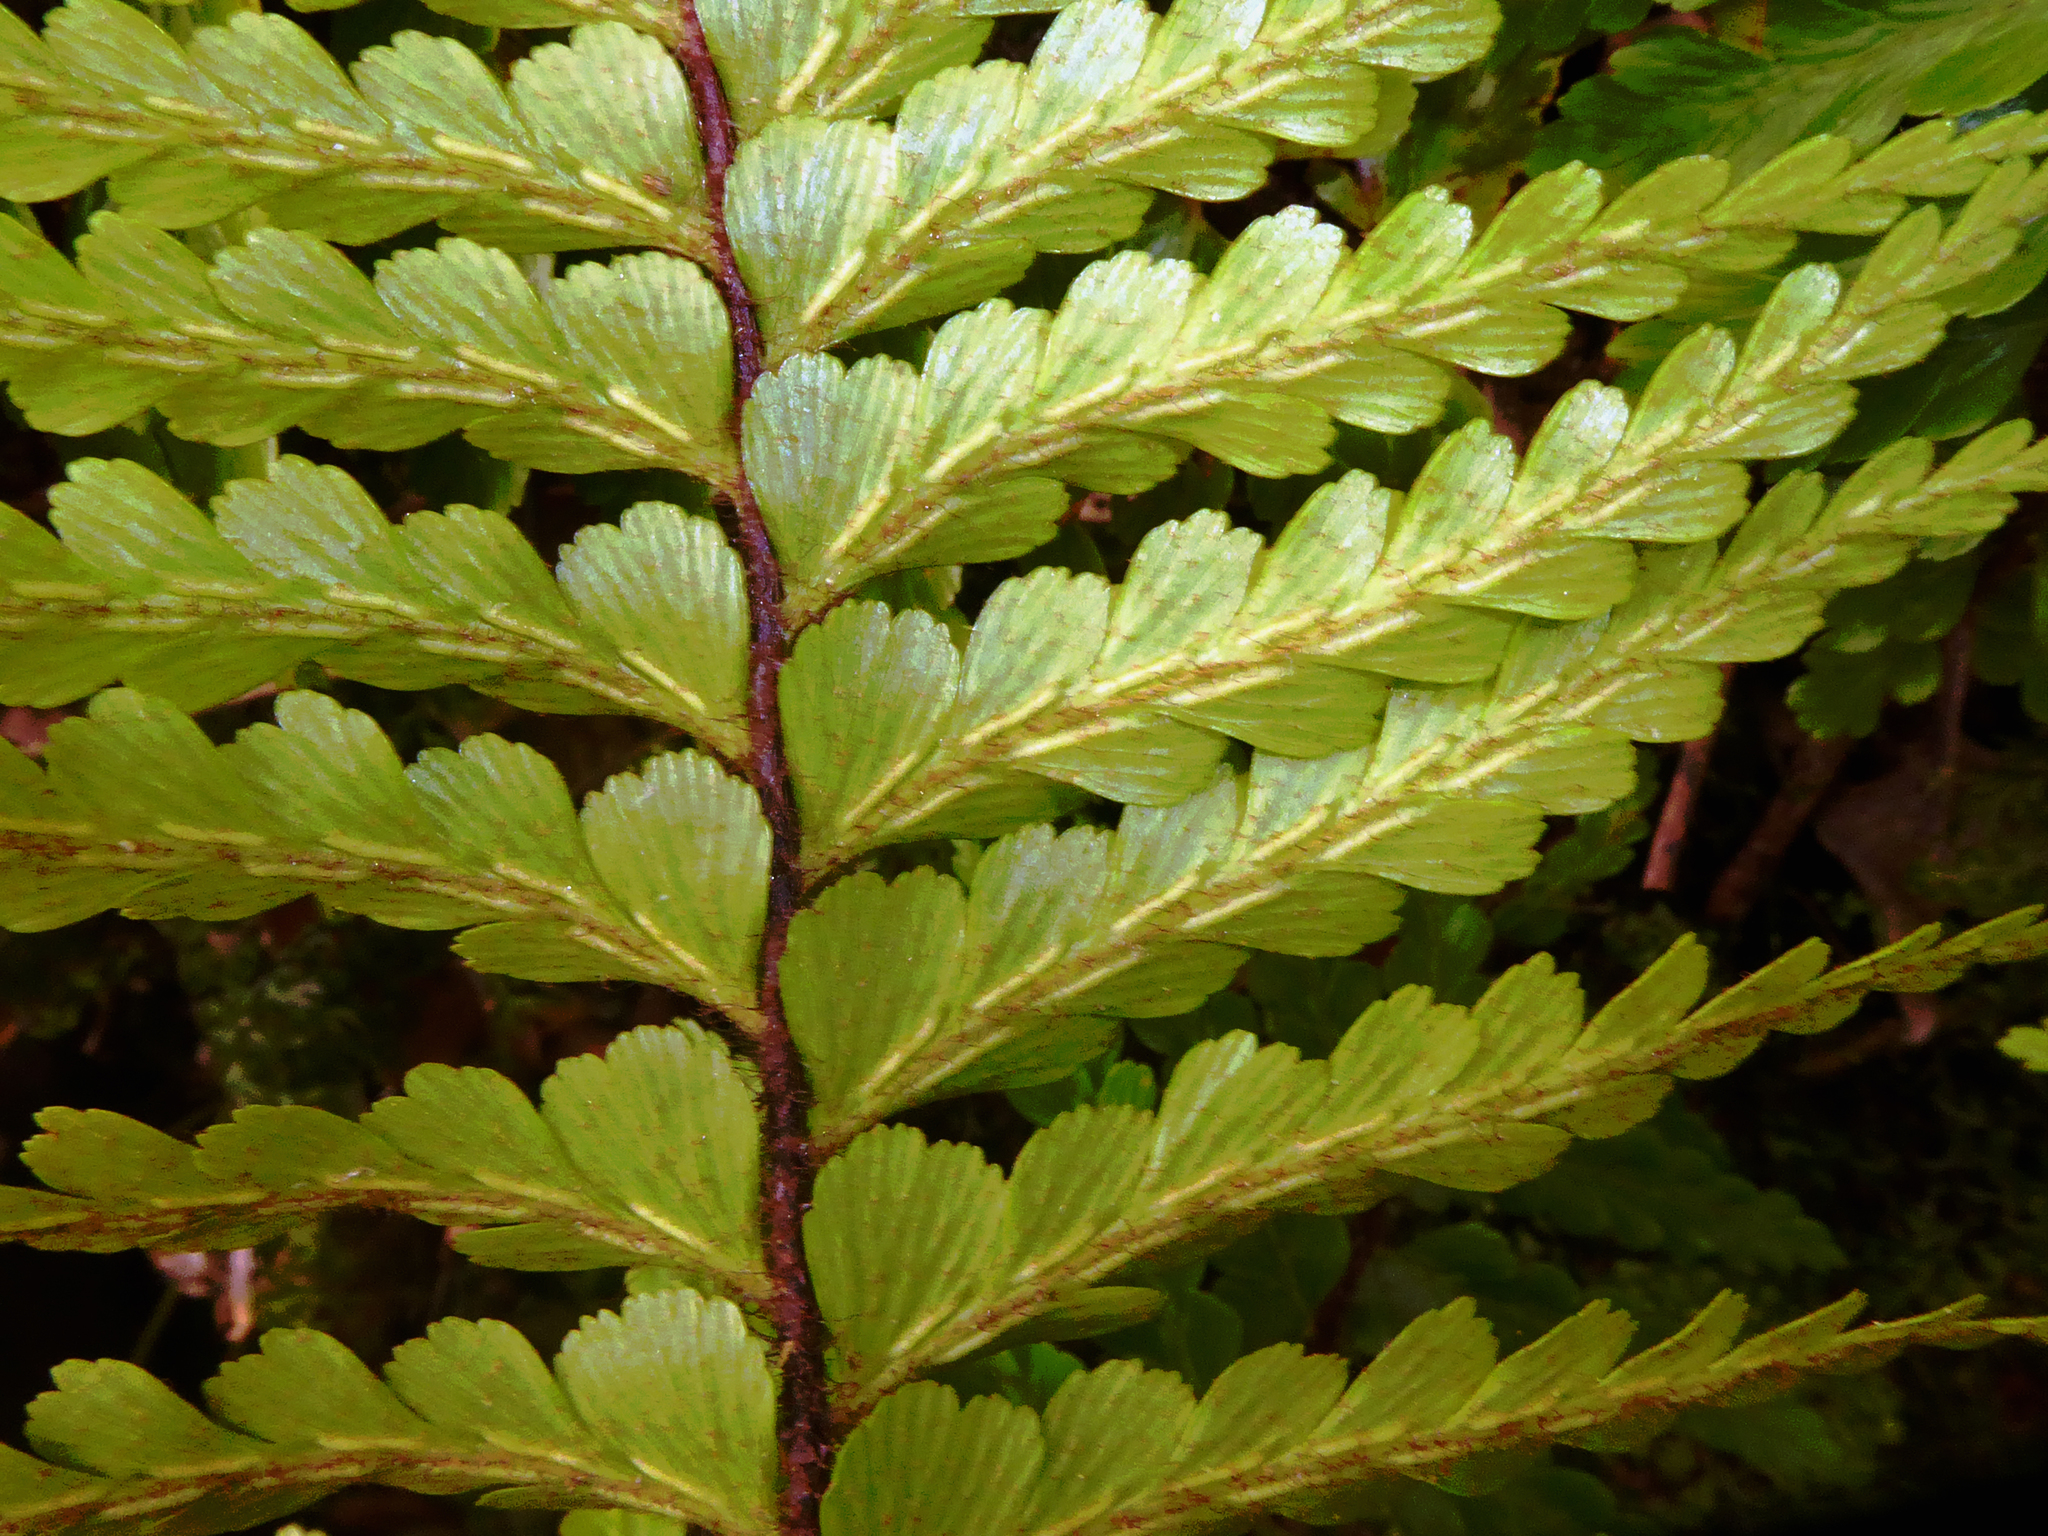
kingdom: Plantae
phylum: Tracheophyta
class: Polypodiopsida
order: Polypodiales
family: Aspleniaceae
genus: Asplenium
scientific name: Asplenium caudatum
